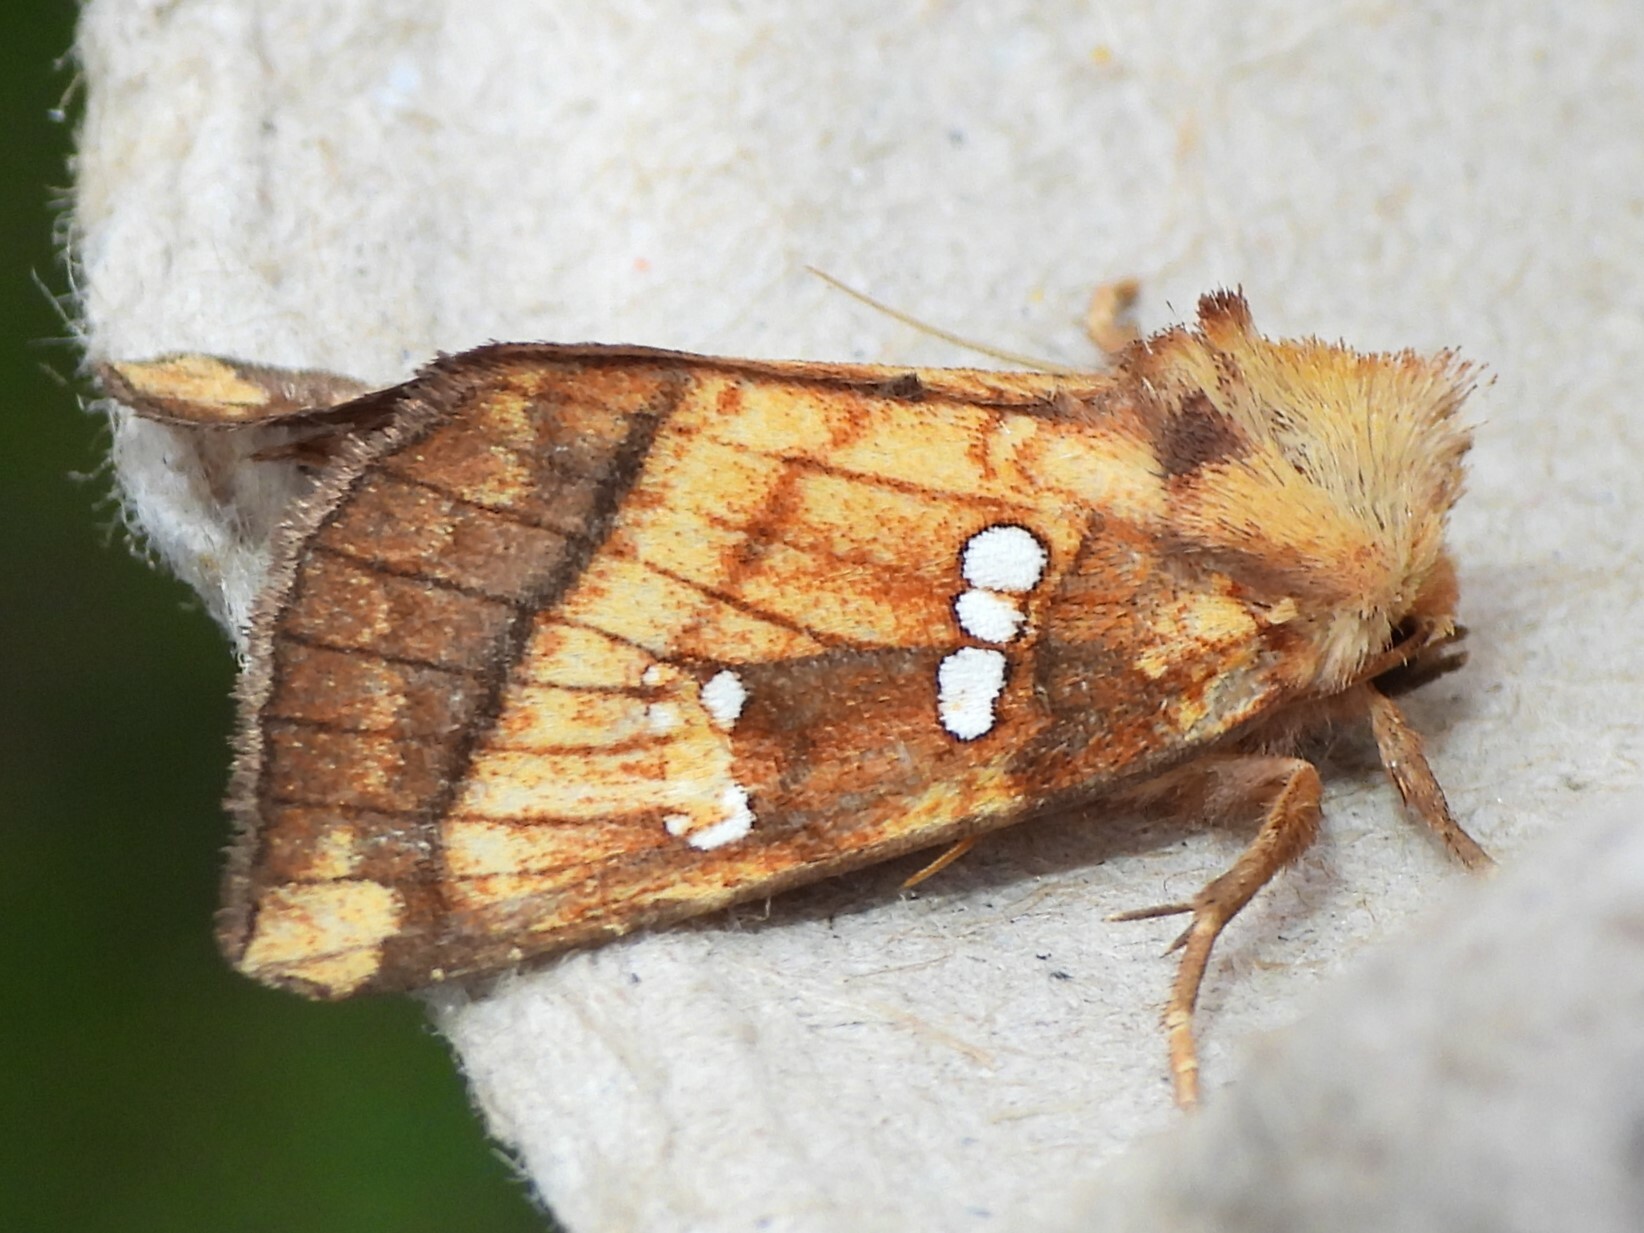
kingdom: Animalia
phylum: Arthropoda
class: Insecta
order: Lepidoptera
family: Noctuidae
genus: Papaipema
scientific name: Papaipema pterisii
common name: Bracken borer moth
